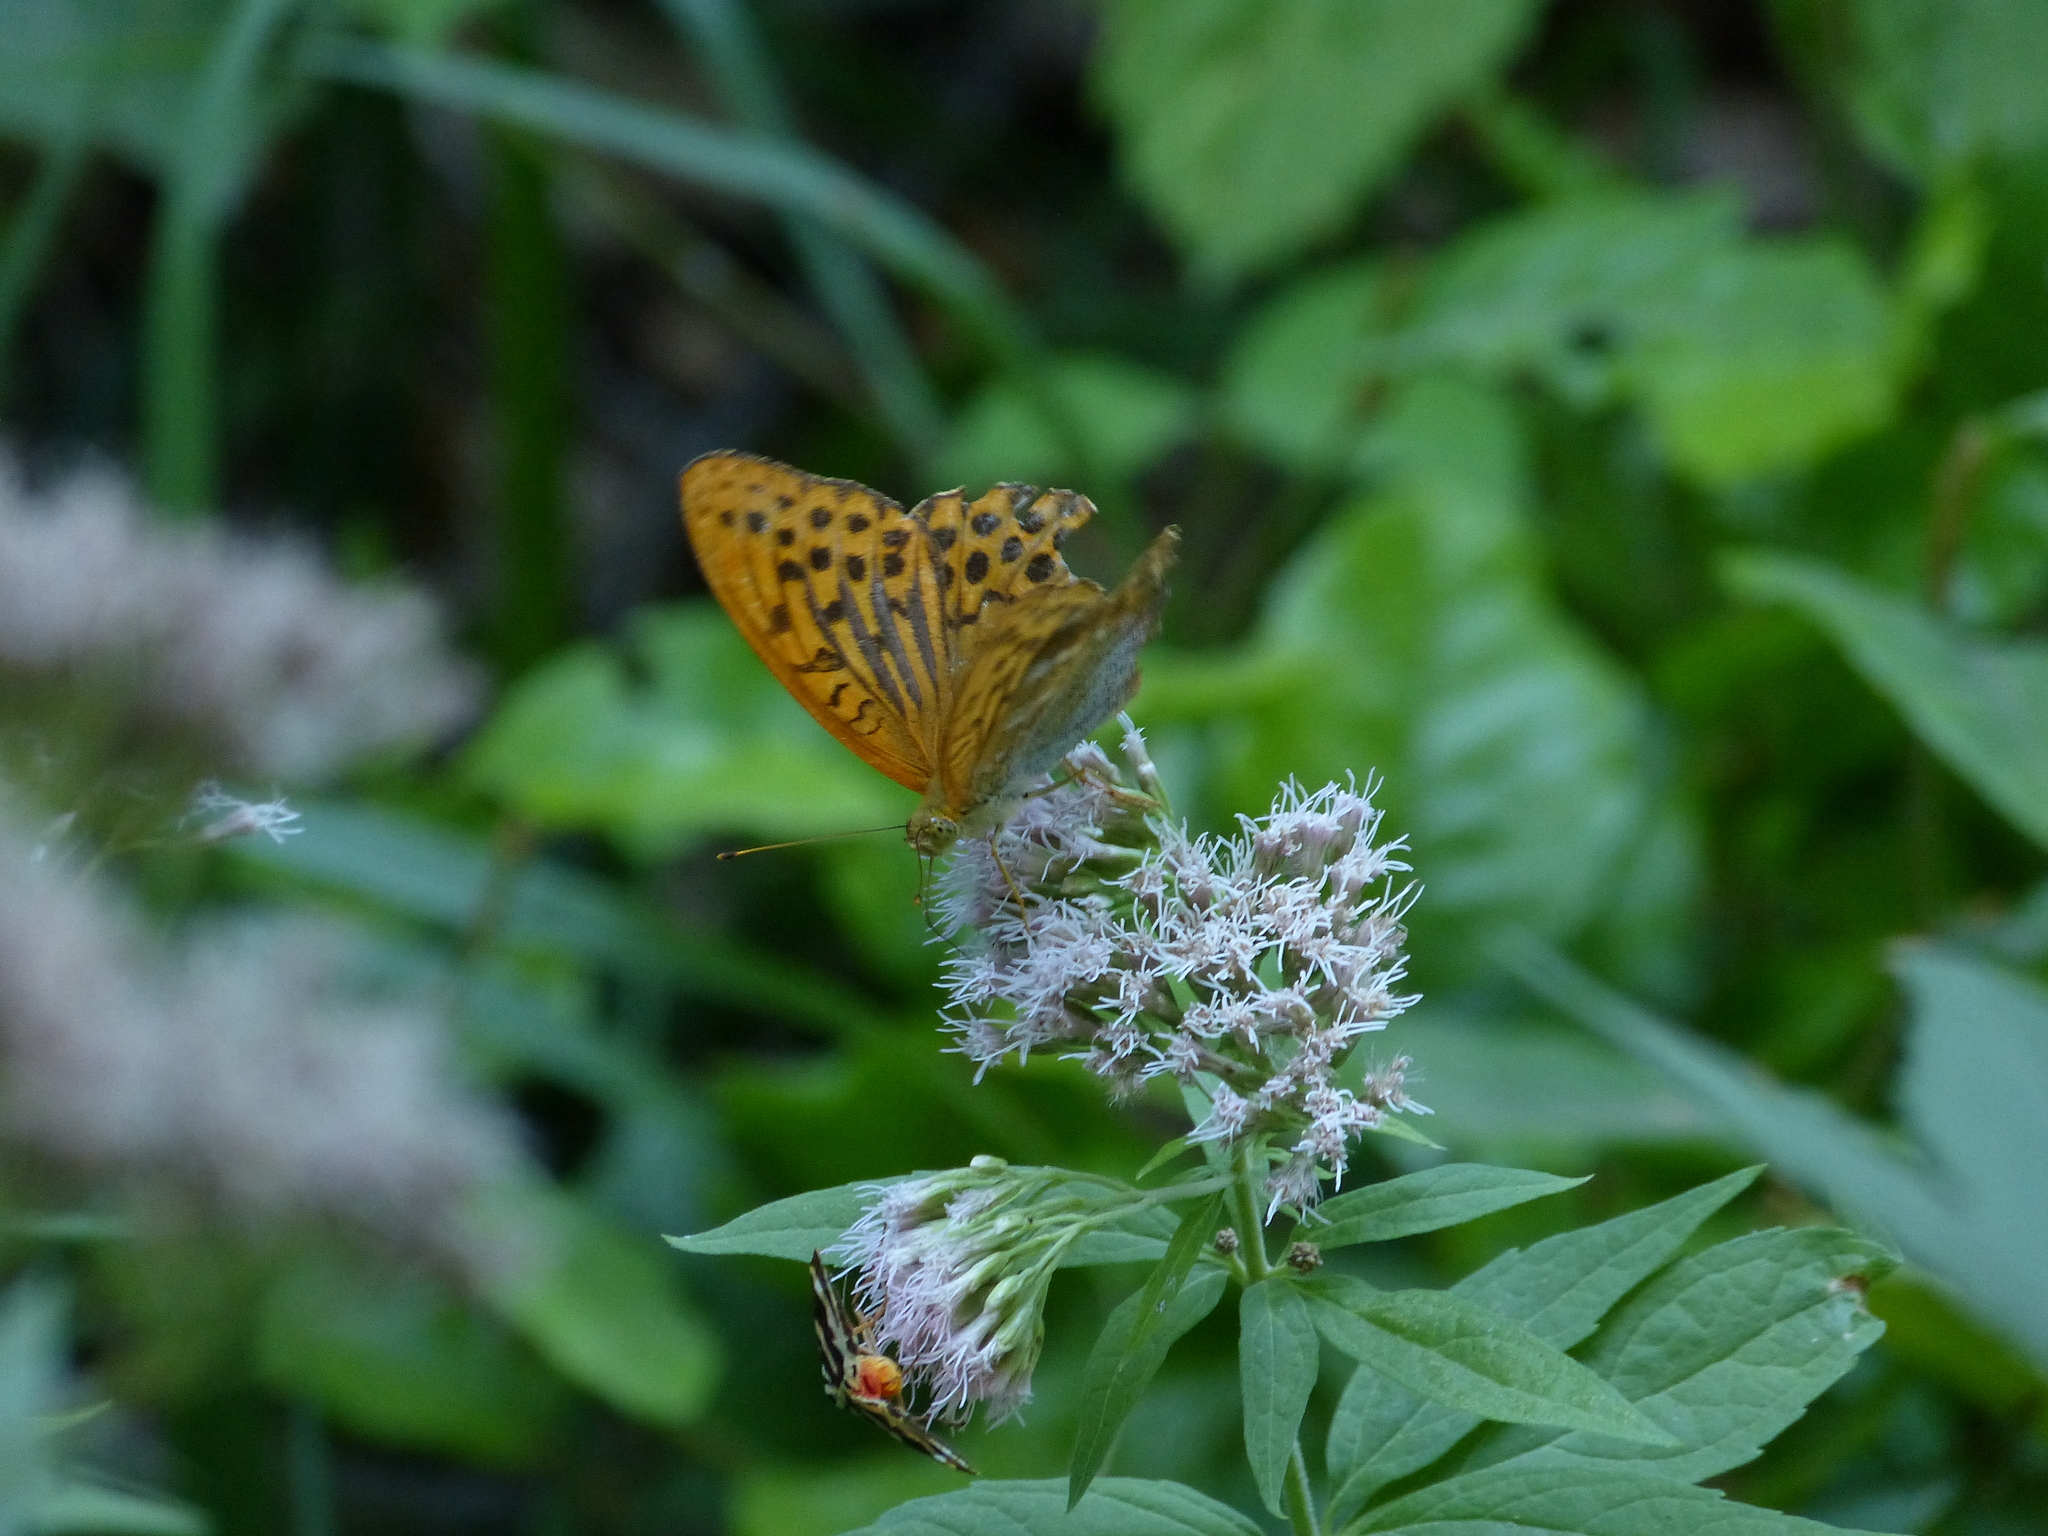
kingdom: Animalia
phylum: Arthropoda
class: Insecta
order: Lepidoptera
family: Nymphalidae
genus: Argynnis
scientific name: Argynnis paphia
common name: Silver-washed fritillary
